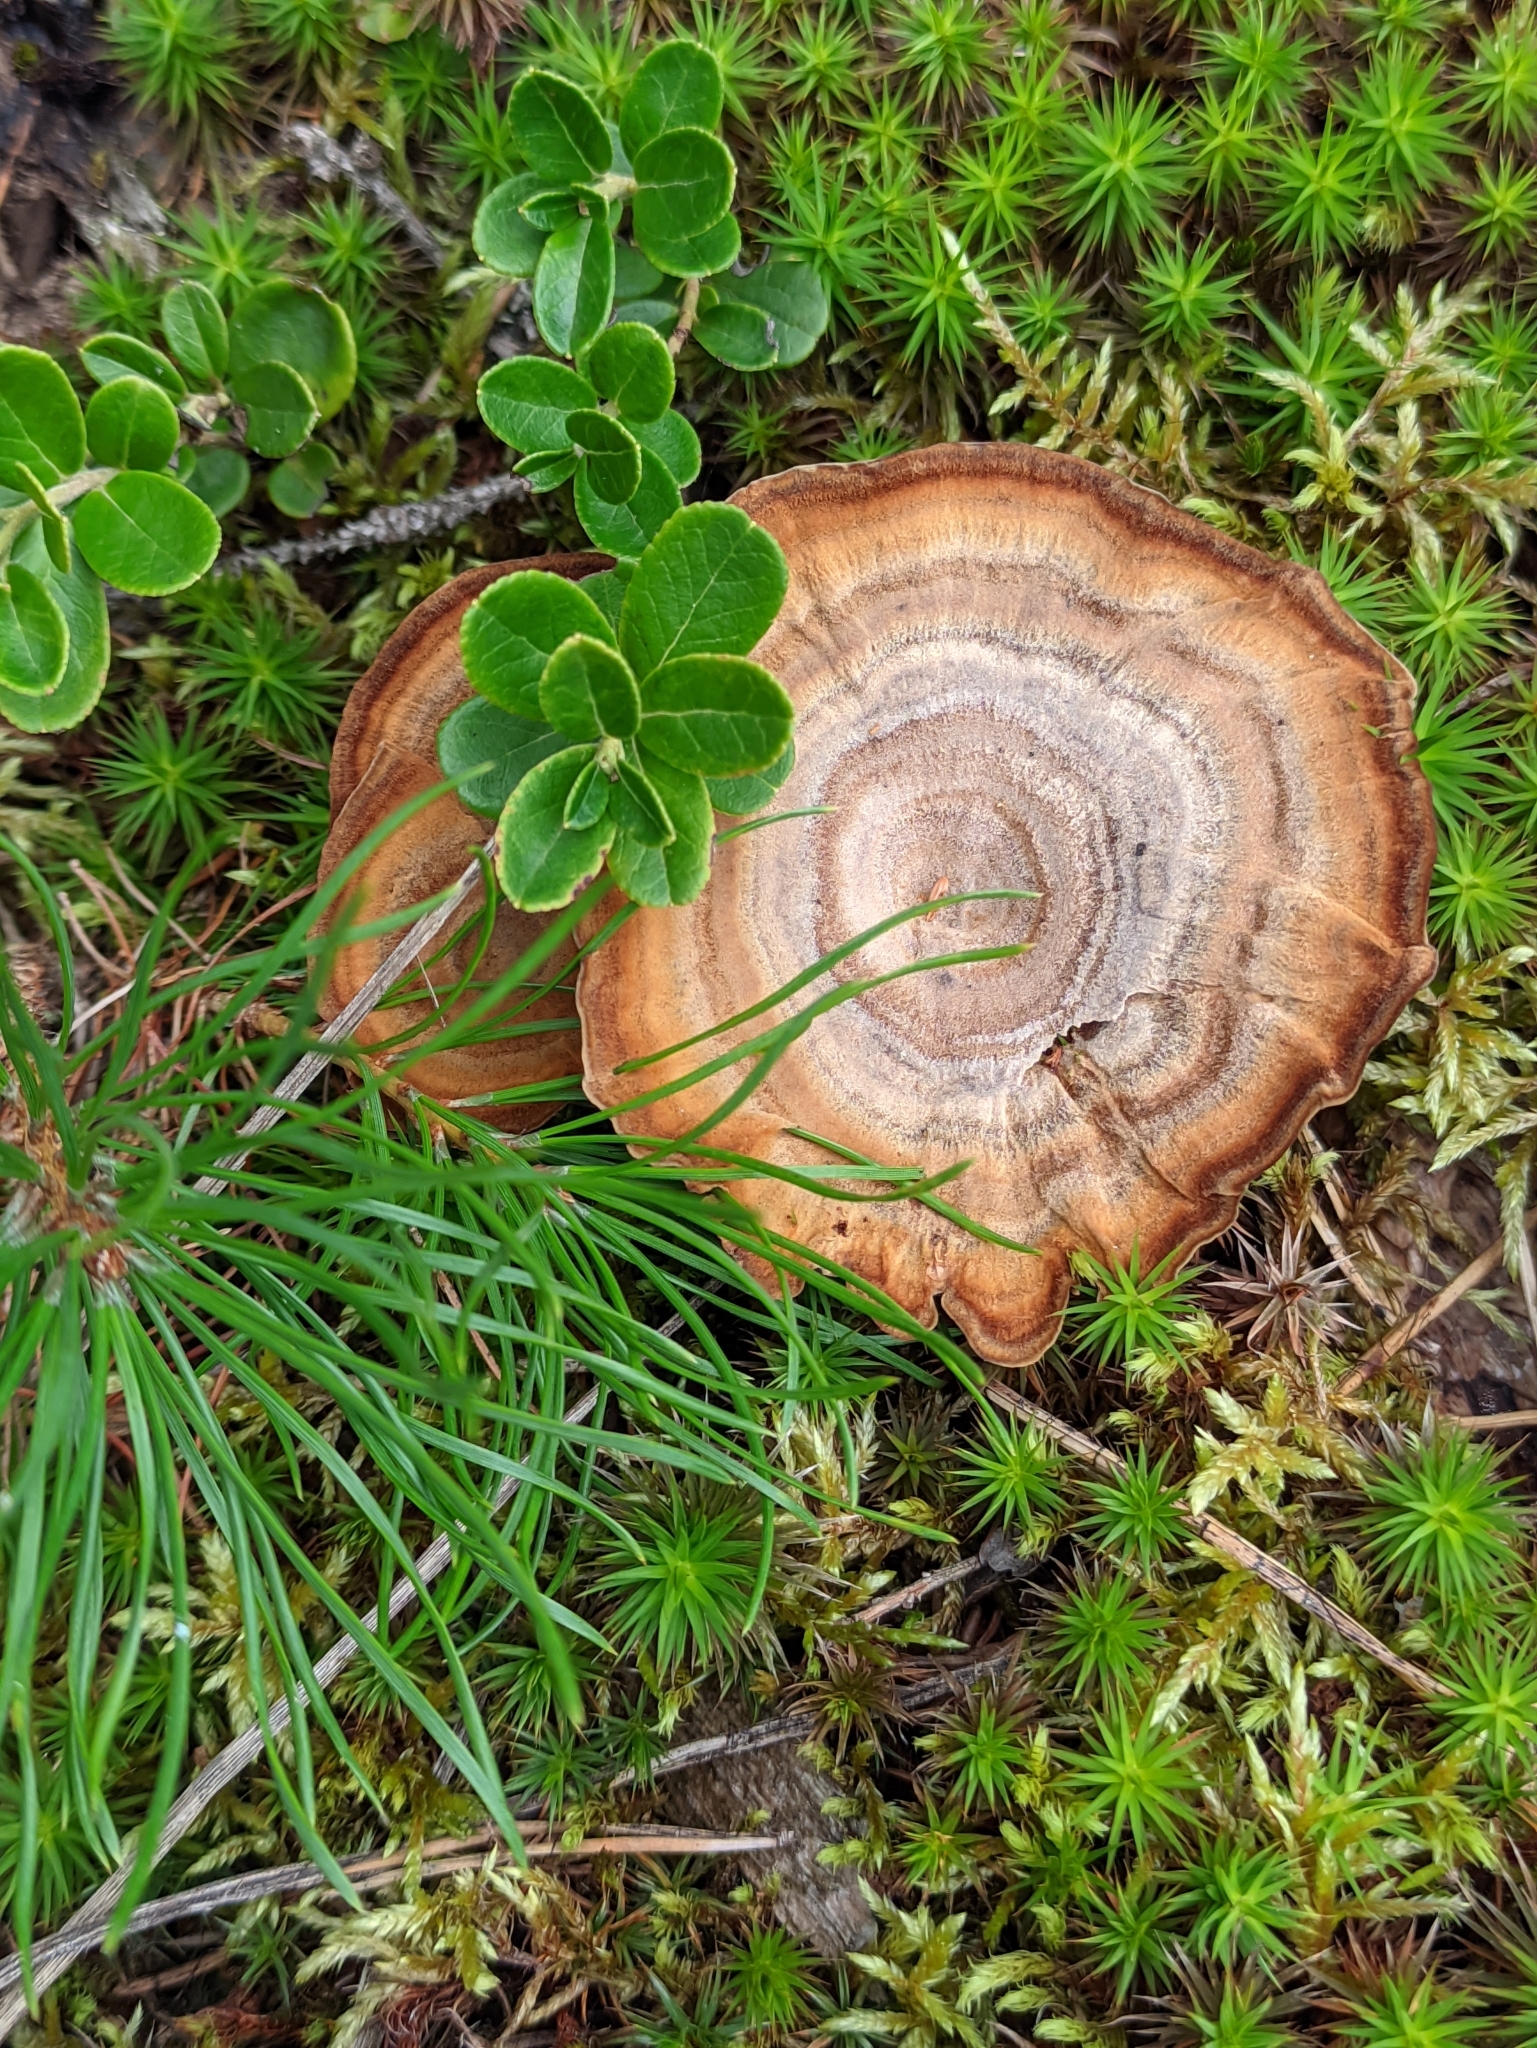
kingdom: Fungi
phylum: Basidiomycota
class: Agaricomycetes
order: Hymenochaetales
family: Hymenochaetaceae
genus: Coltricia
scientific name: Coltricia perennis
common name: Tiger's eye
